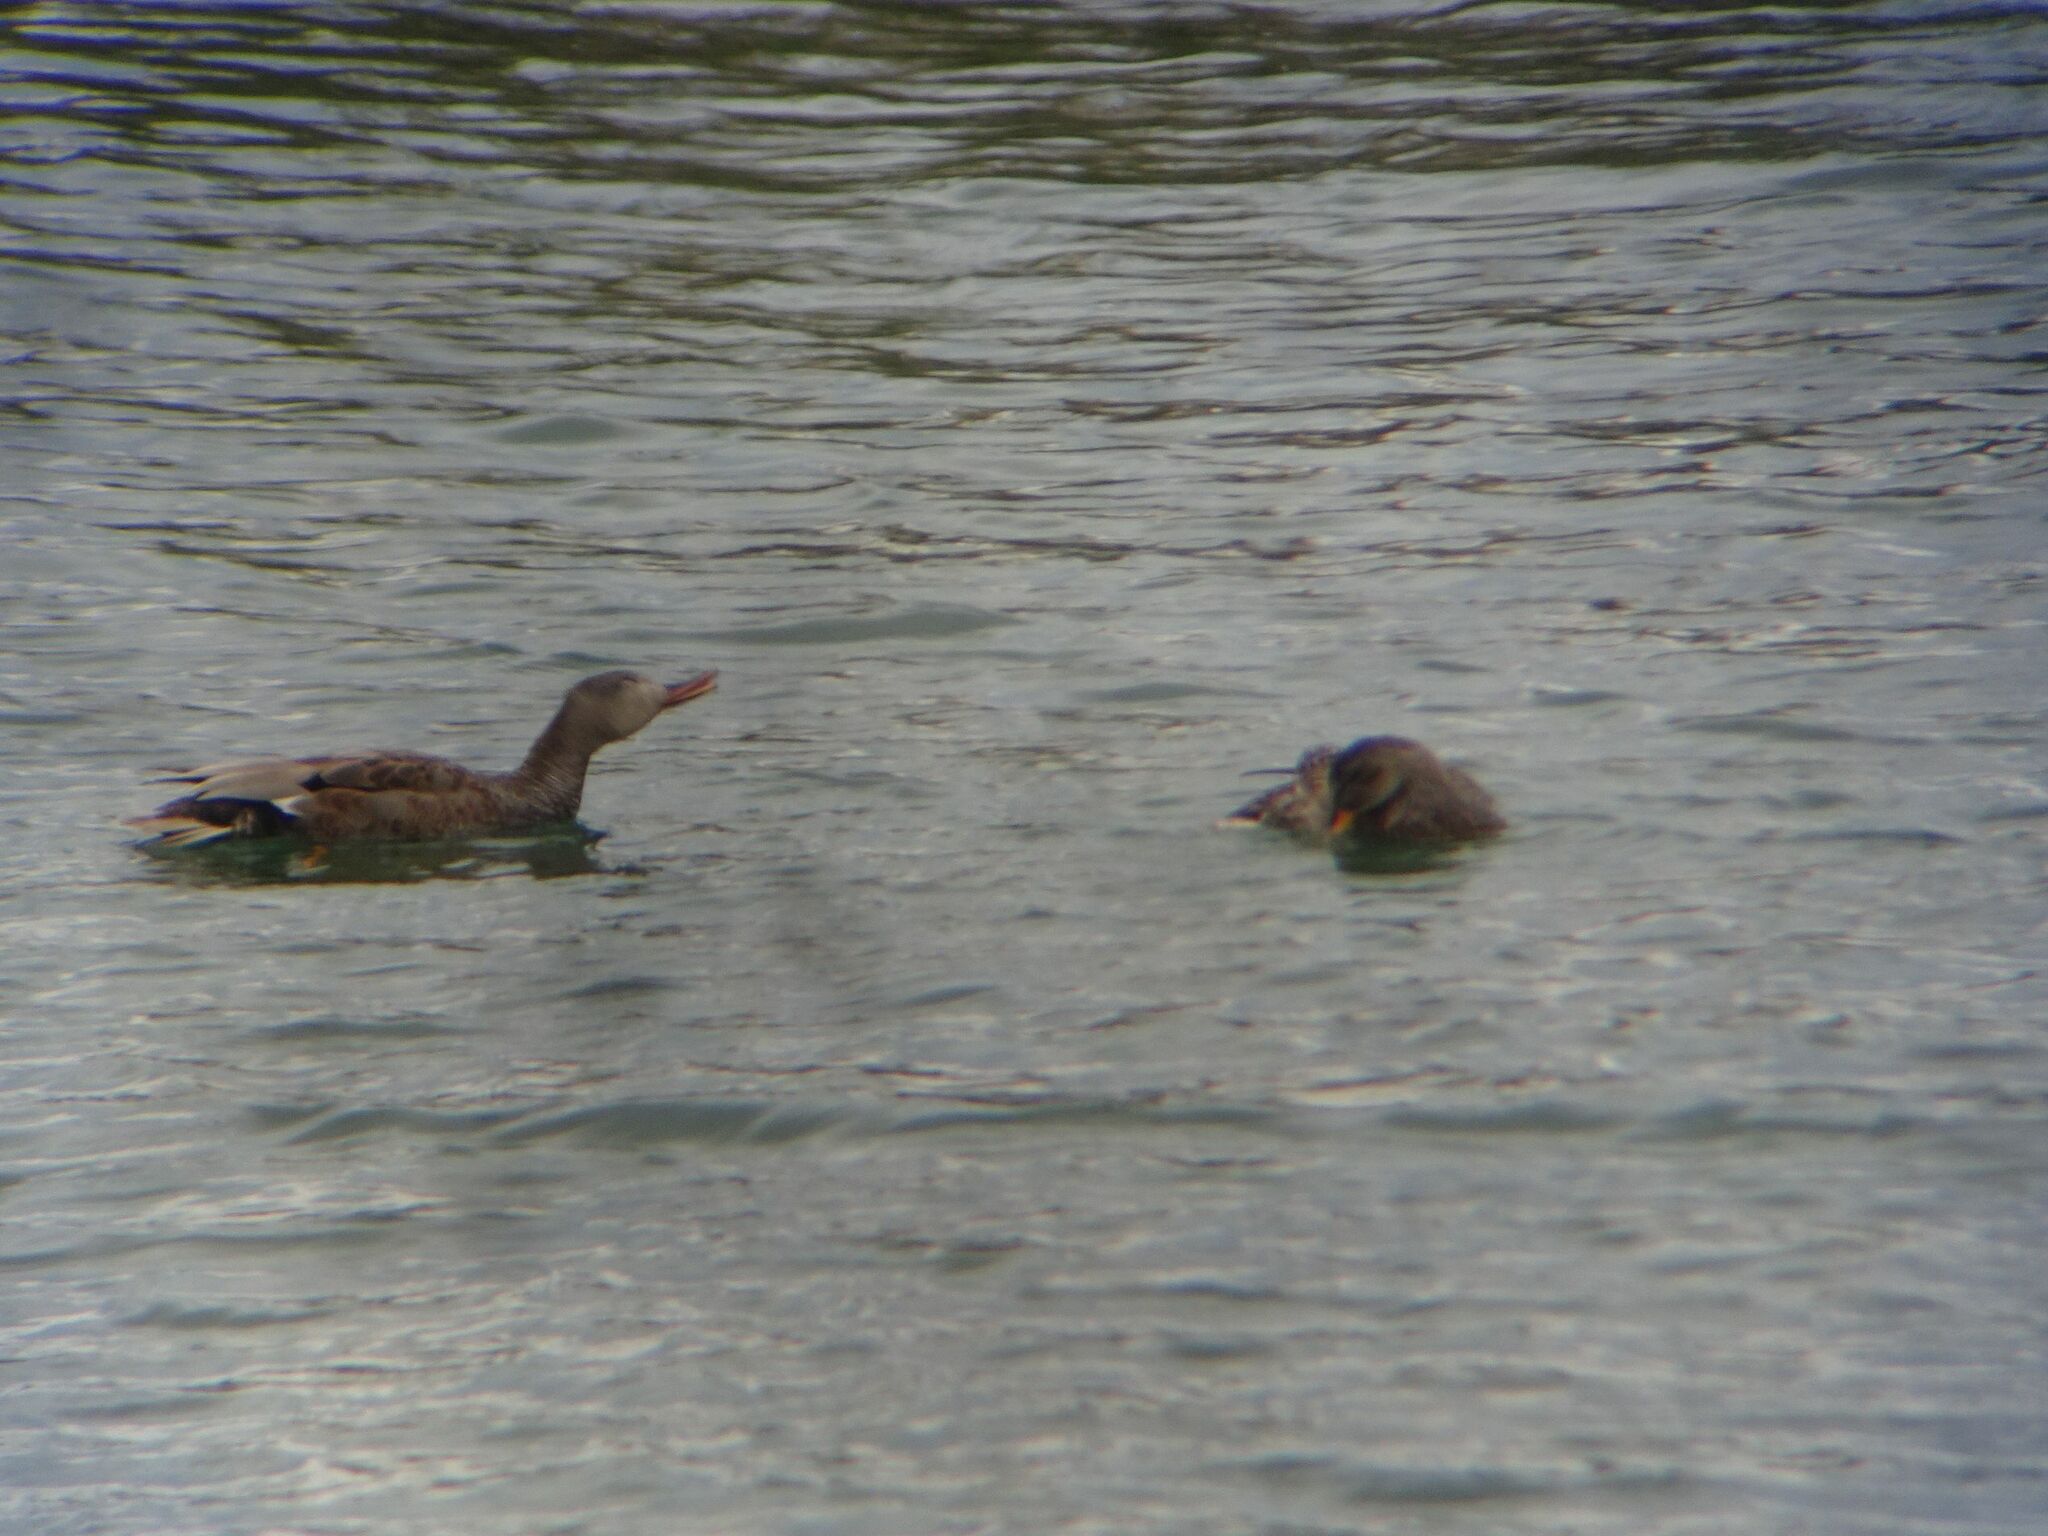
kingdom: Animalia
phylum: Chordata
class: Aves
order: Anseriformes
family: Anatidae
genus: Mareca
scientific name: Mareca strepera
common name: Gadwall
